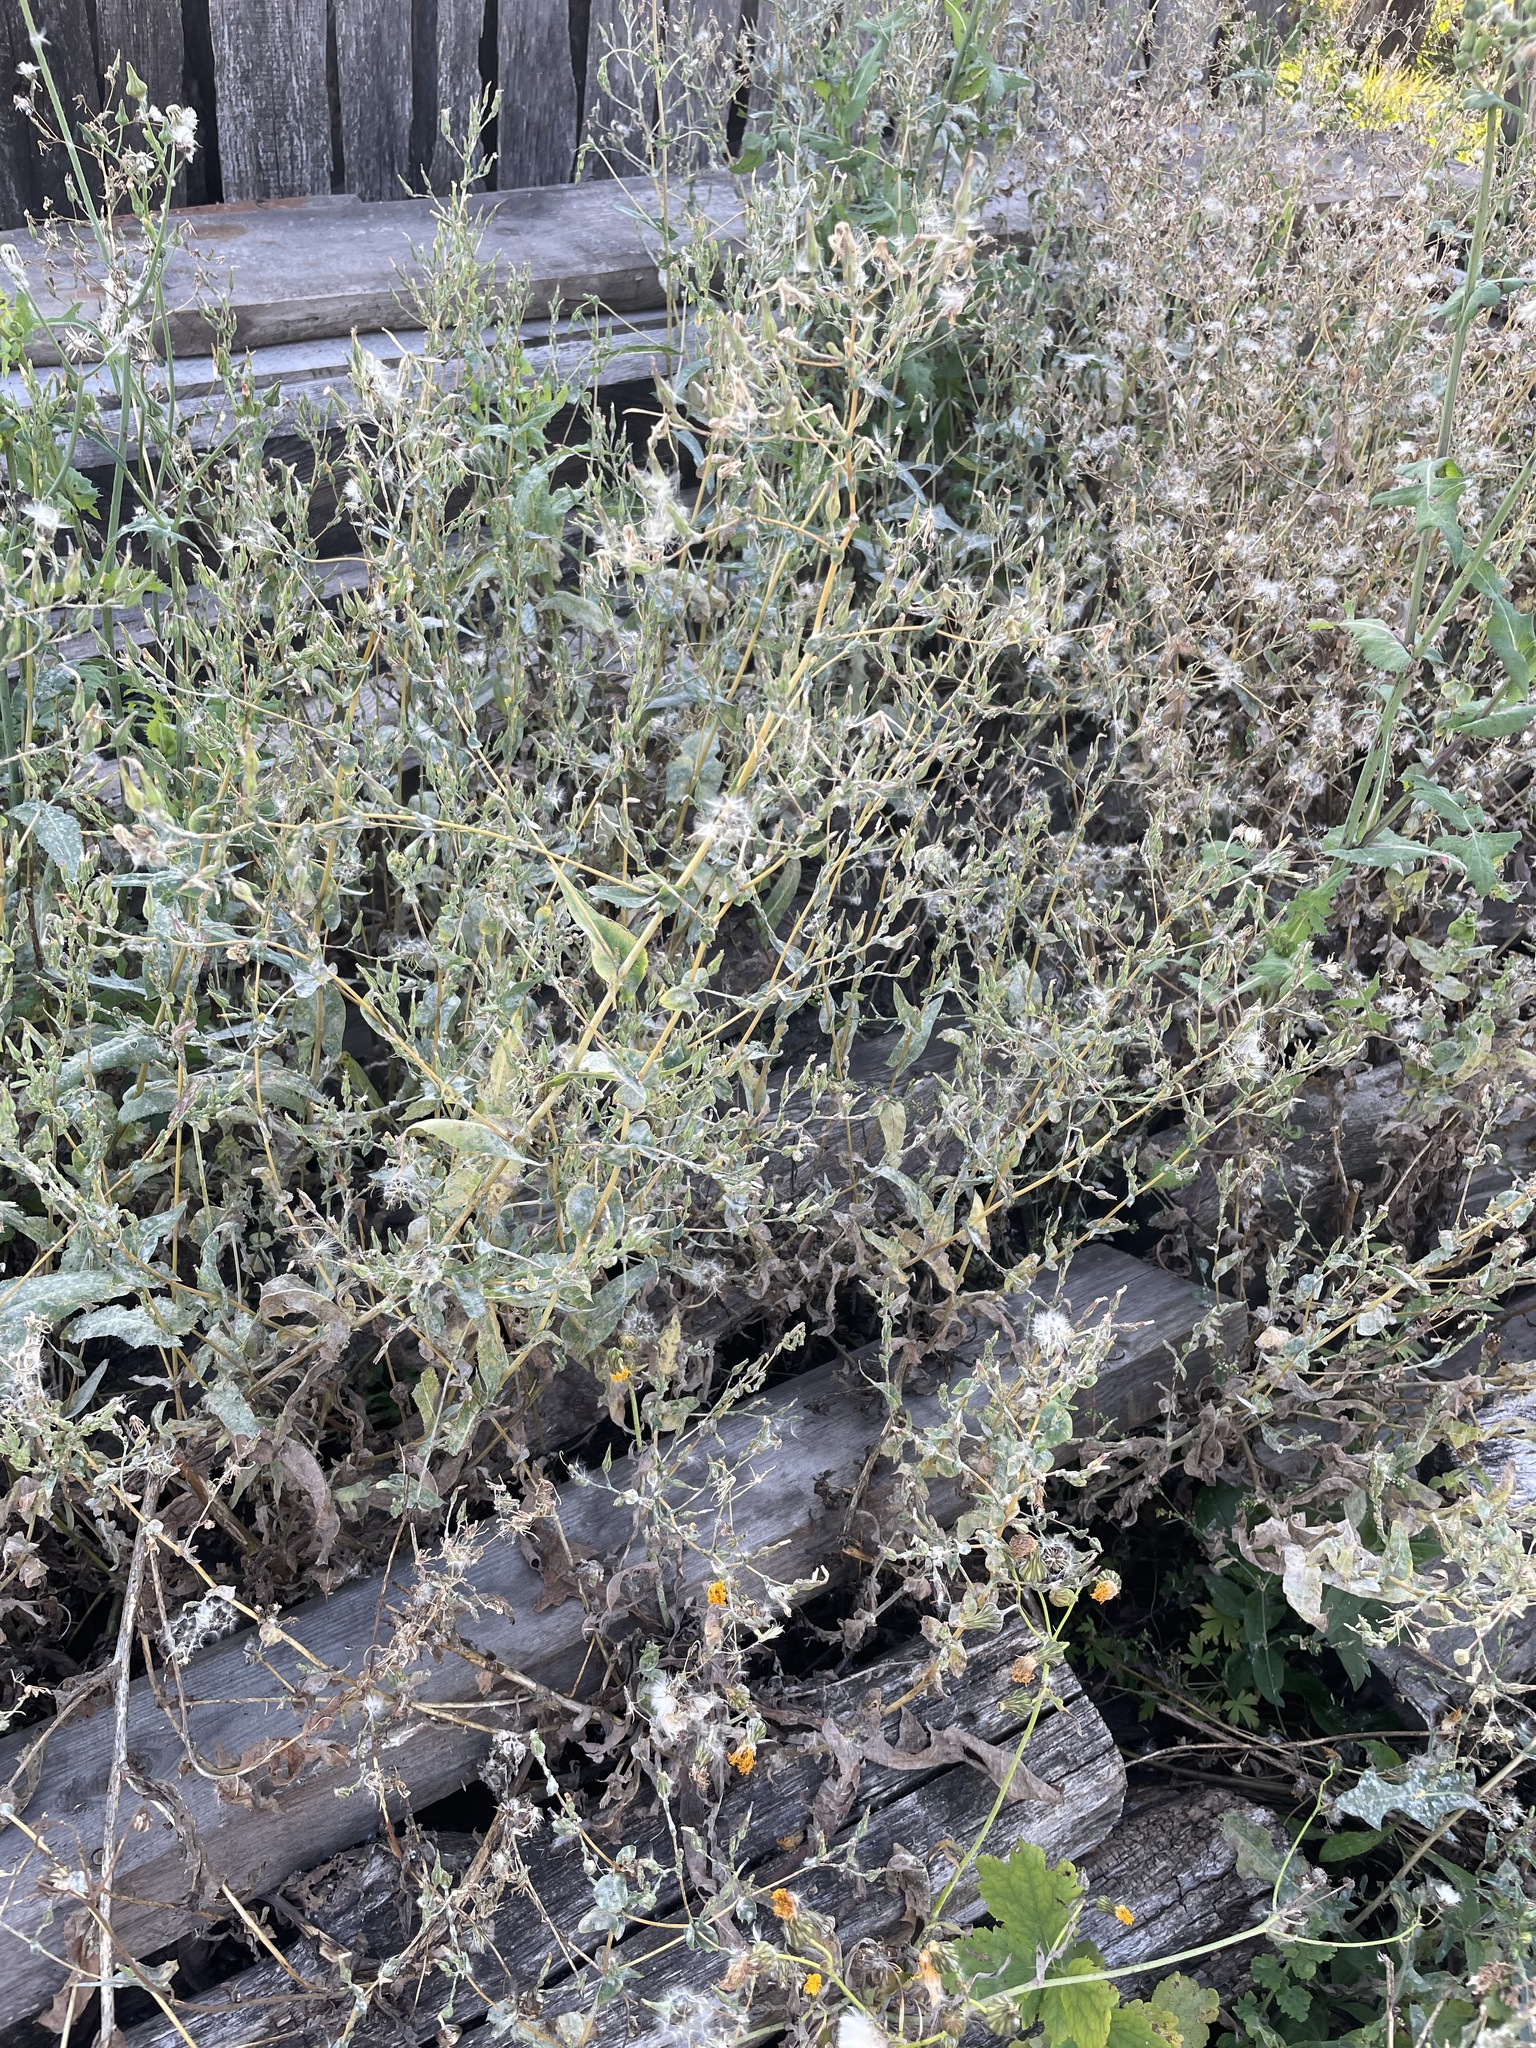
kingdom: Plantae
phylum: Tracheophyta
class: Magnoliopsida
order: Asterales
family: Asteraceae
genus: Lactuca
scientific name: Lactuca serriola
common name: Prickly lettuce
